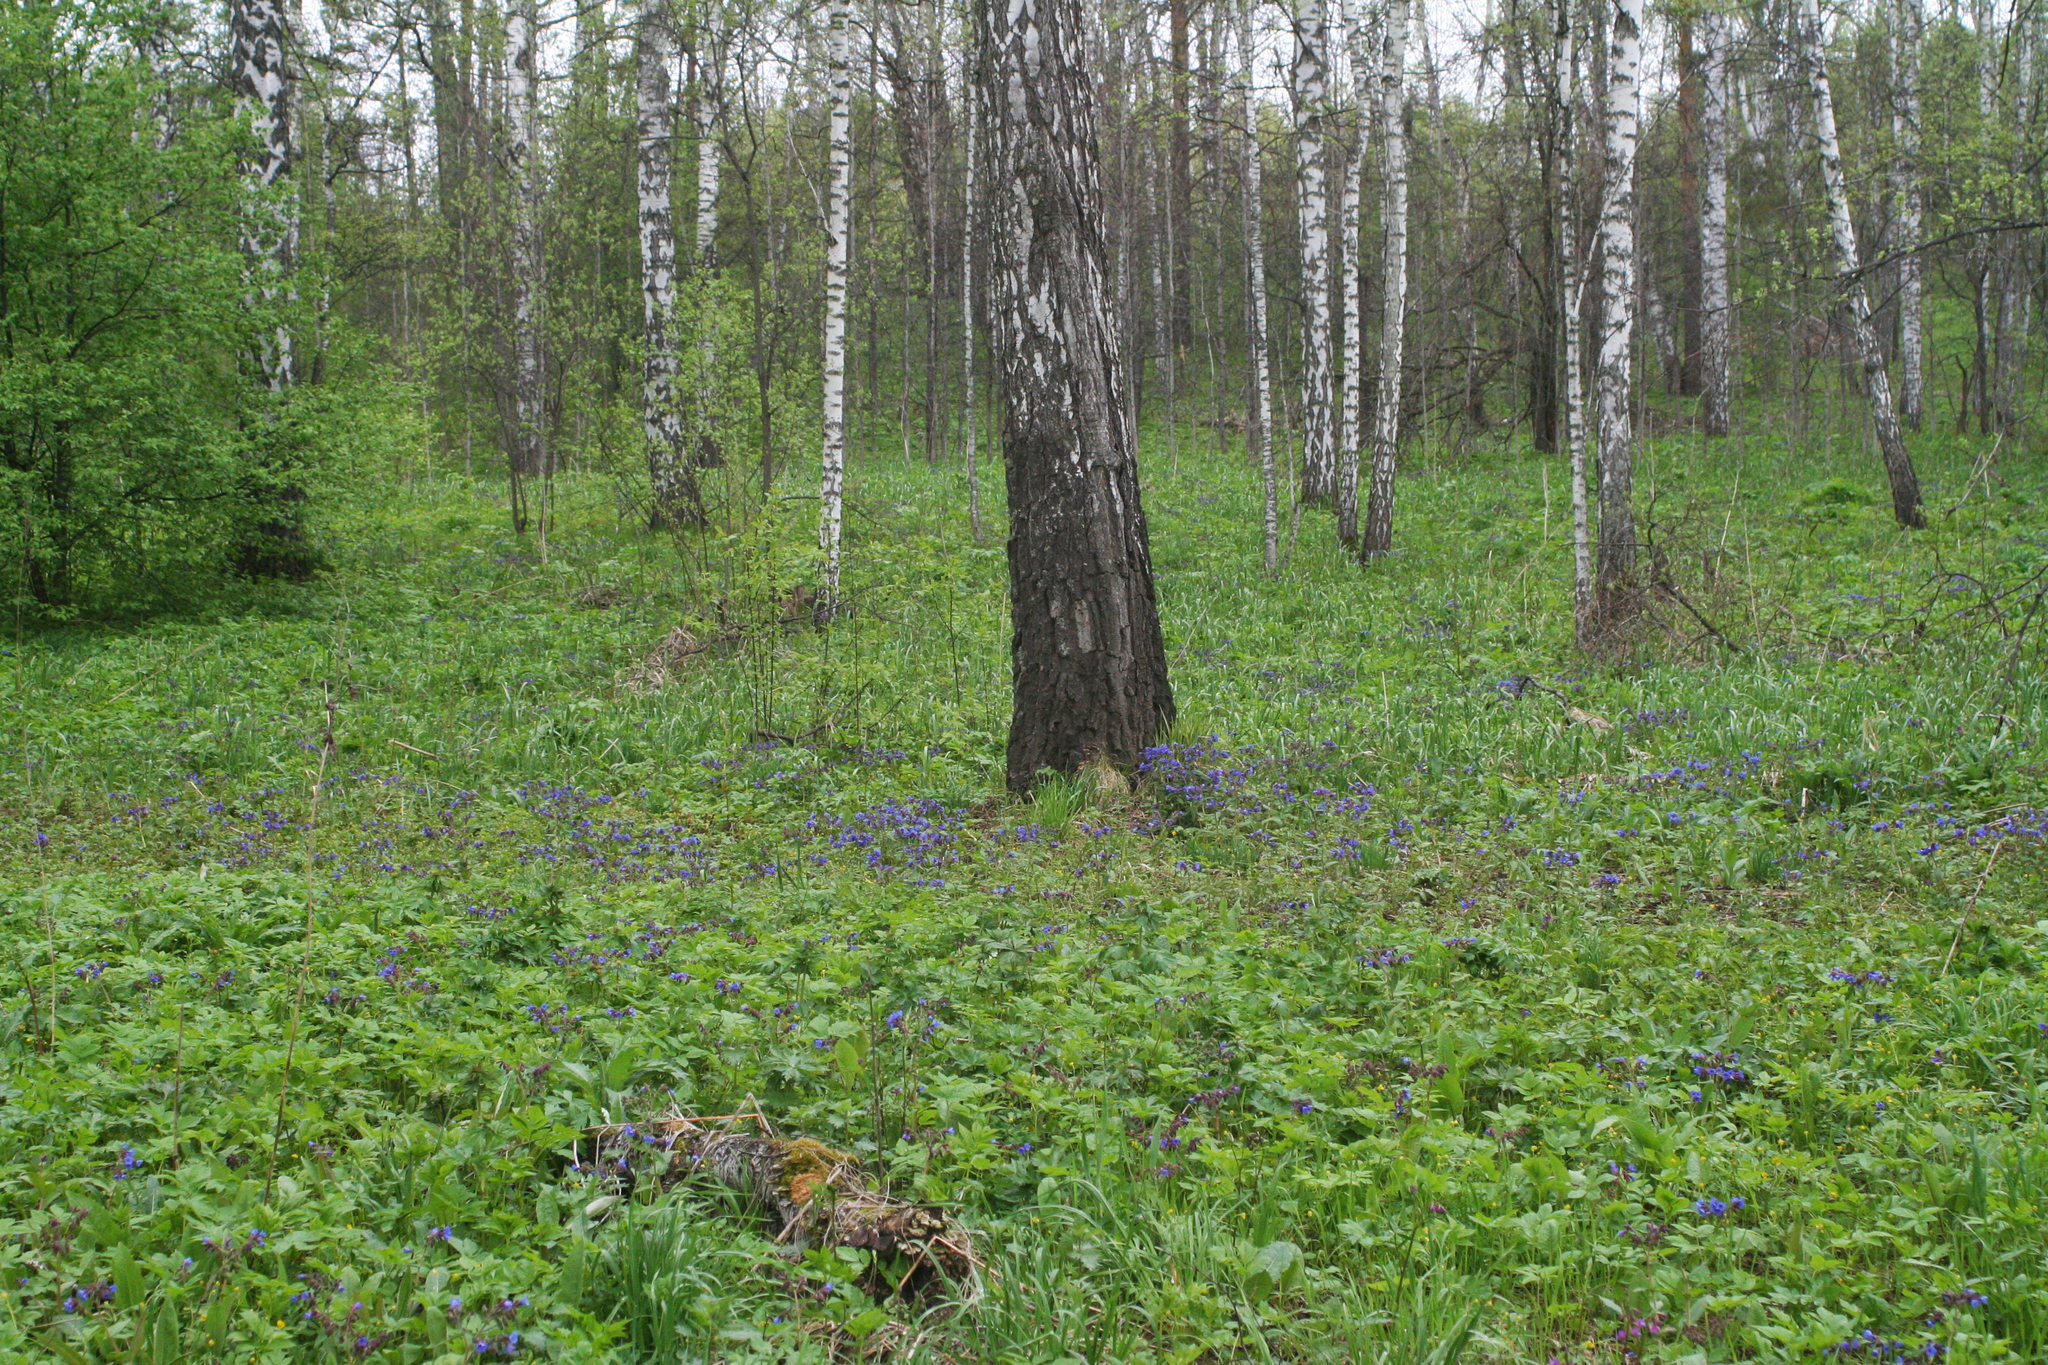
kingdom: Plantae
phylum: Tracheophyta
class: Magnoliopsida
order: Boraginales
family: Boraginaceae
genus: Pulmonaria
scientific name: Pulmonaria mollis
